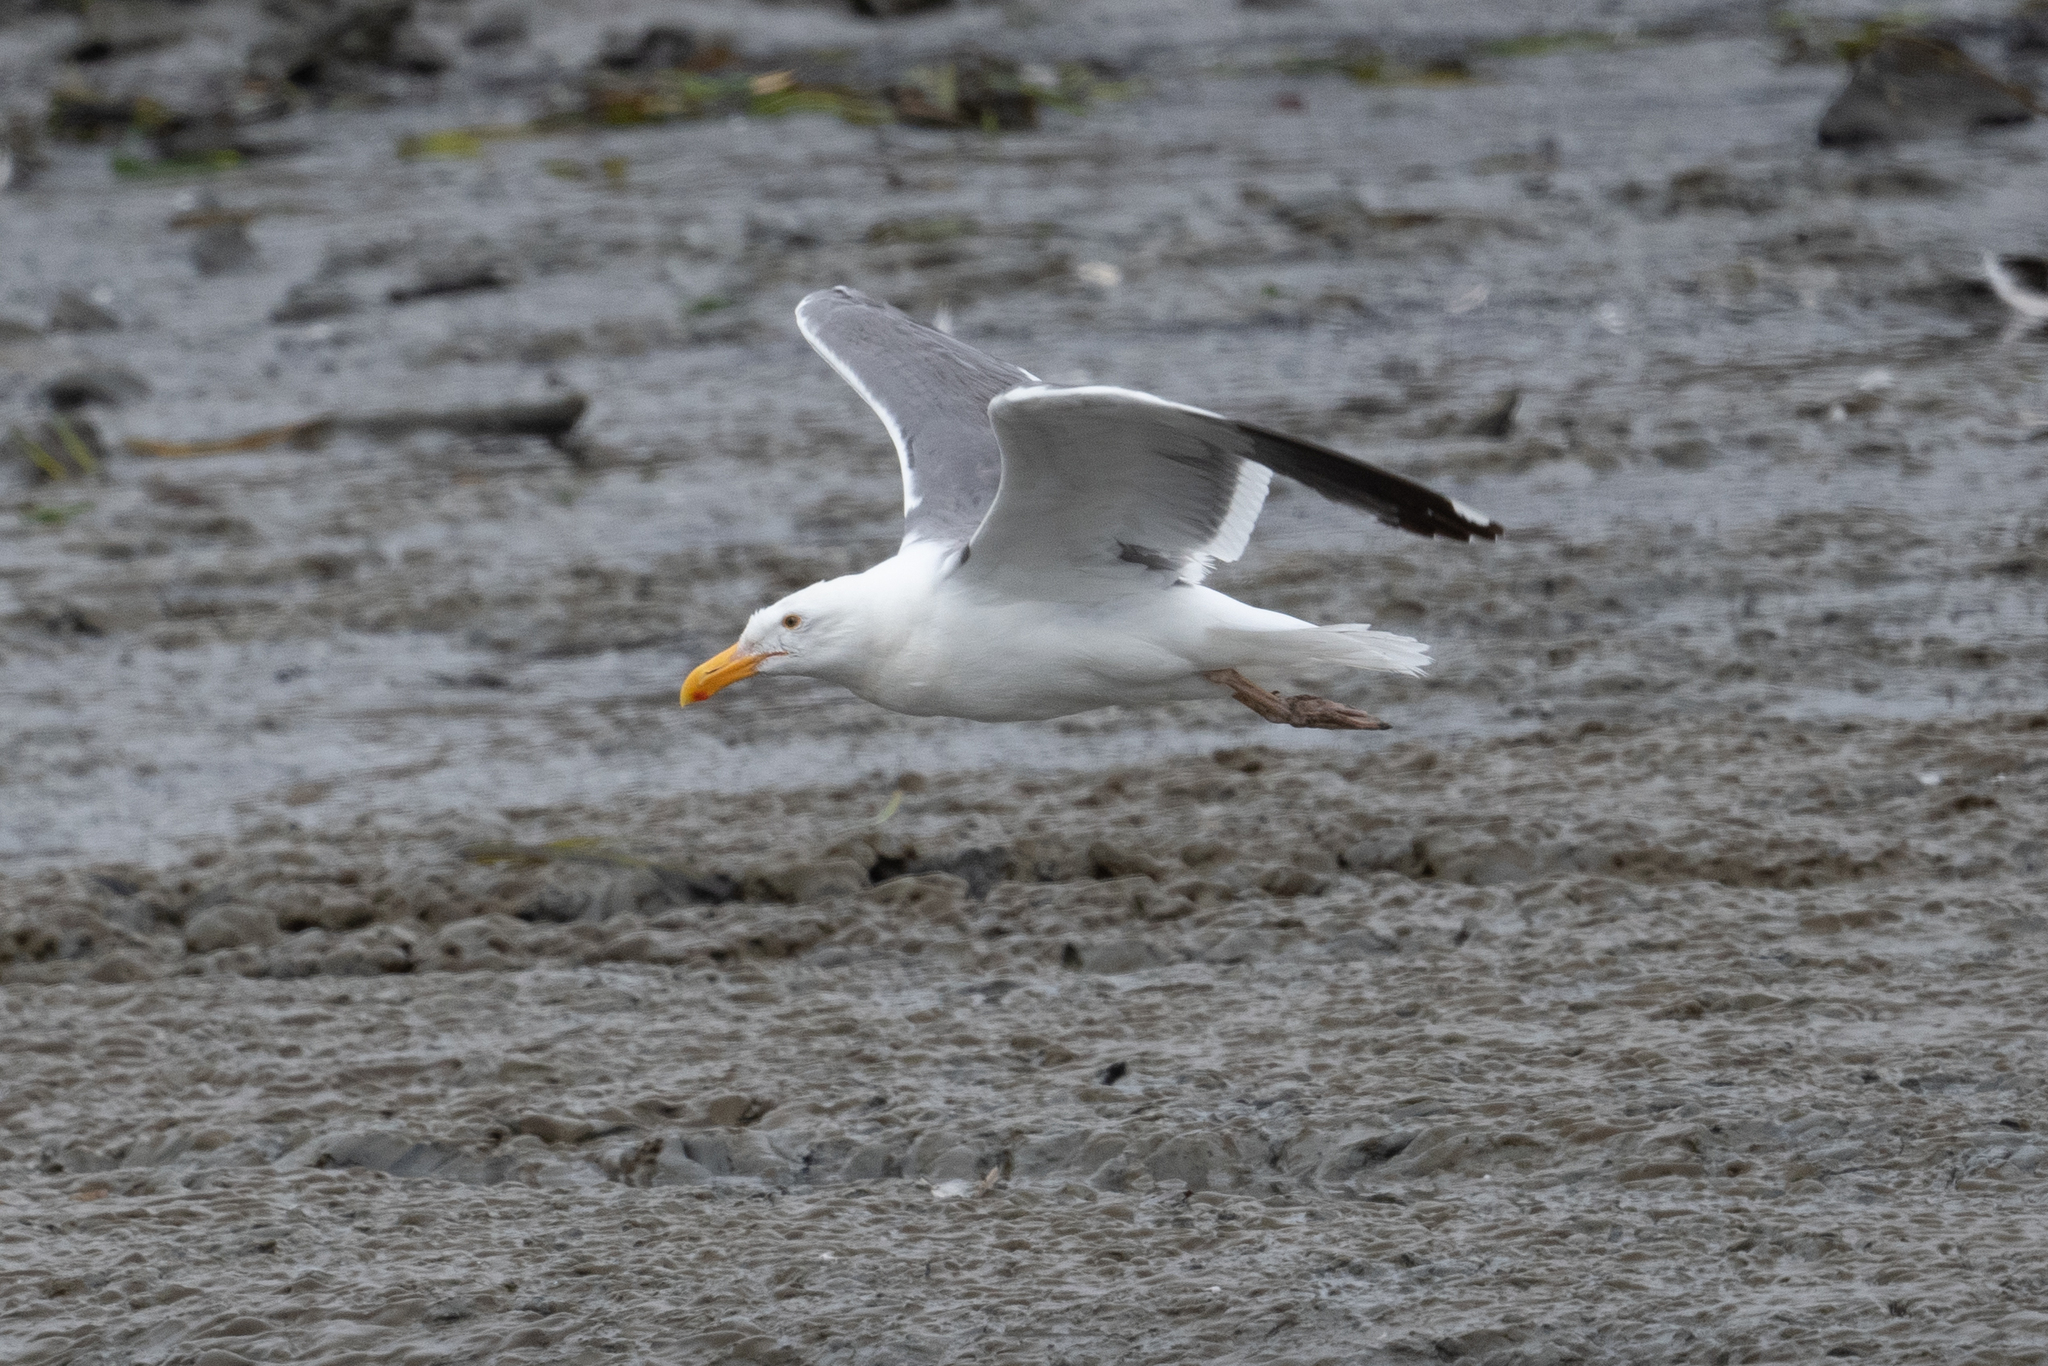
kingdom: Animalia
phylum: Chordata
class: Aves
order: Charadriiformes
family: Laridae
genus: Larus
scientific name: Larus occidentalis
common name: Western gull
